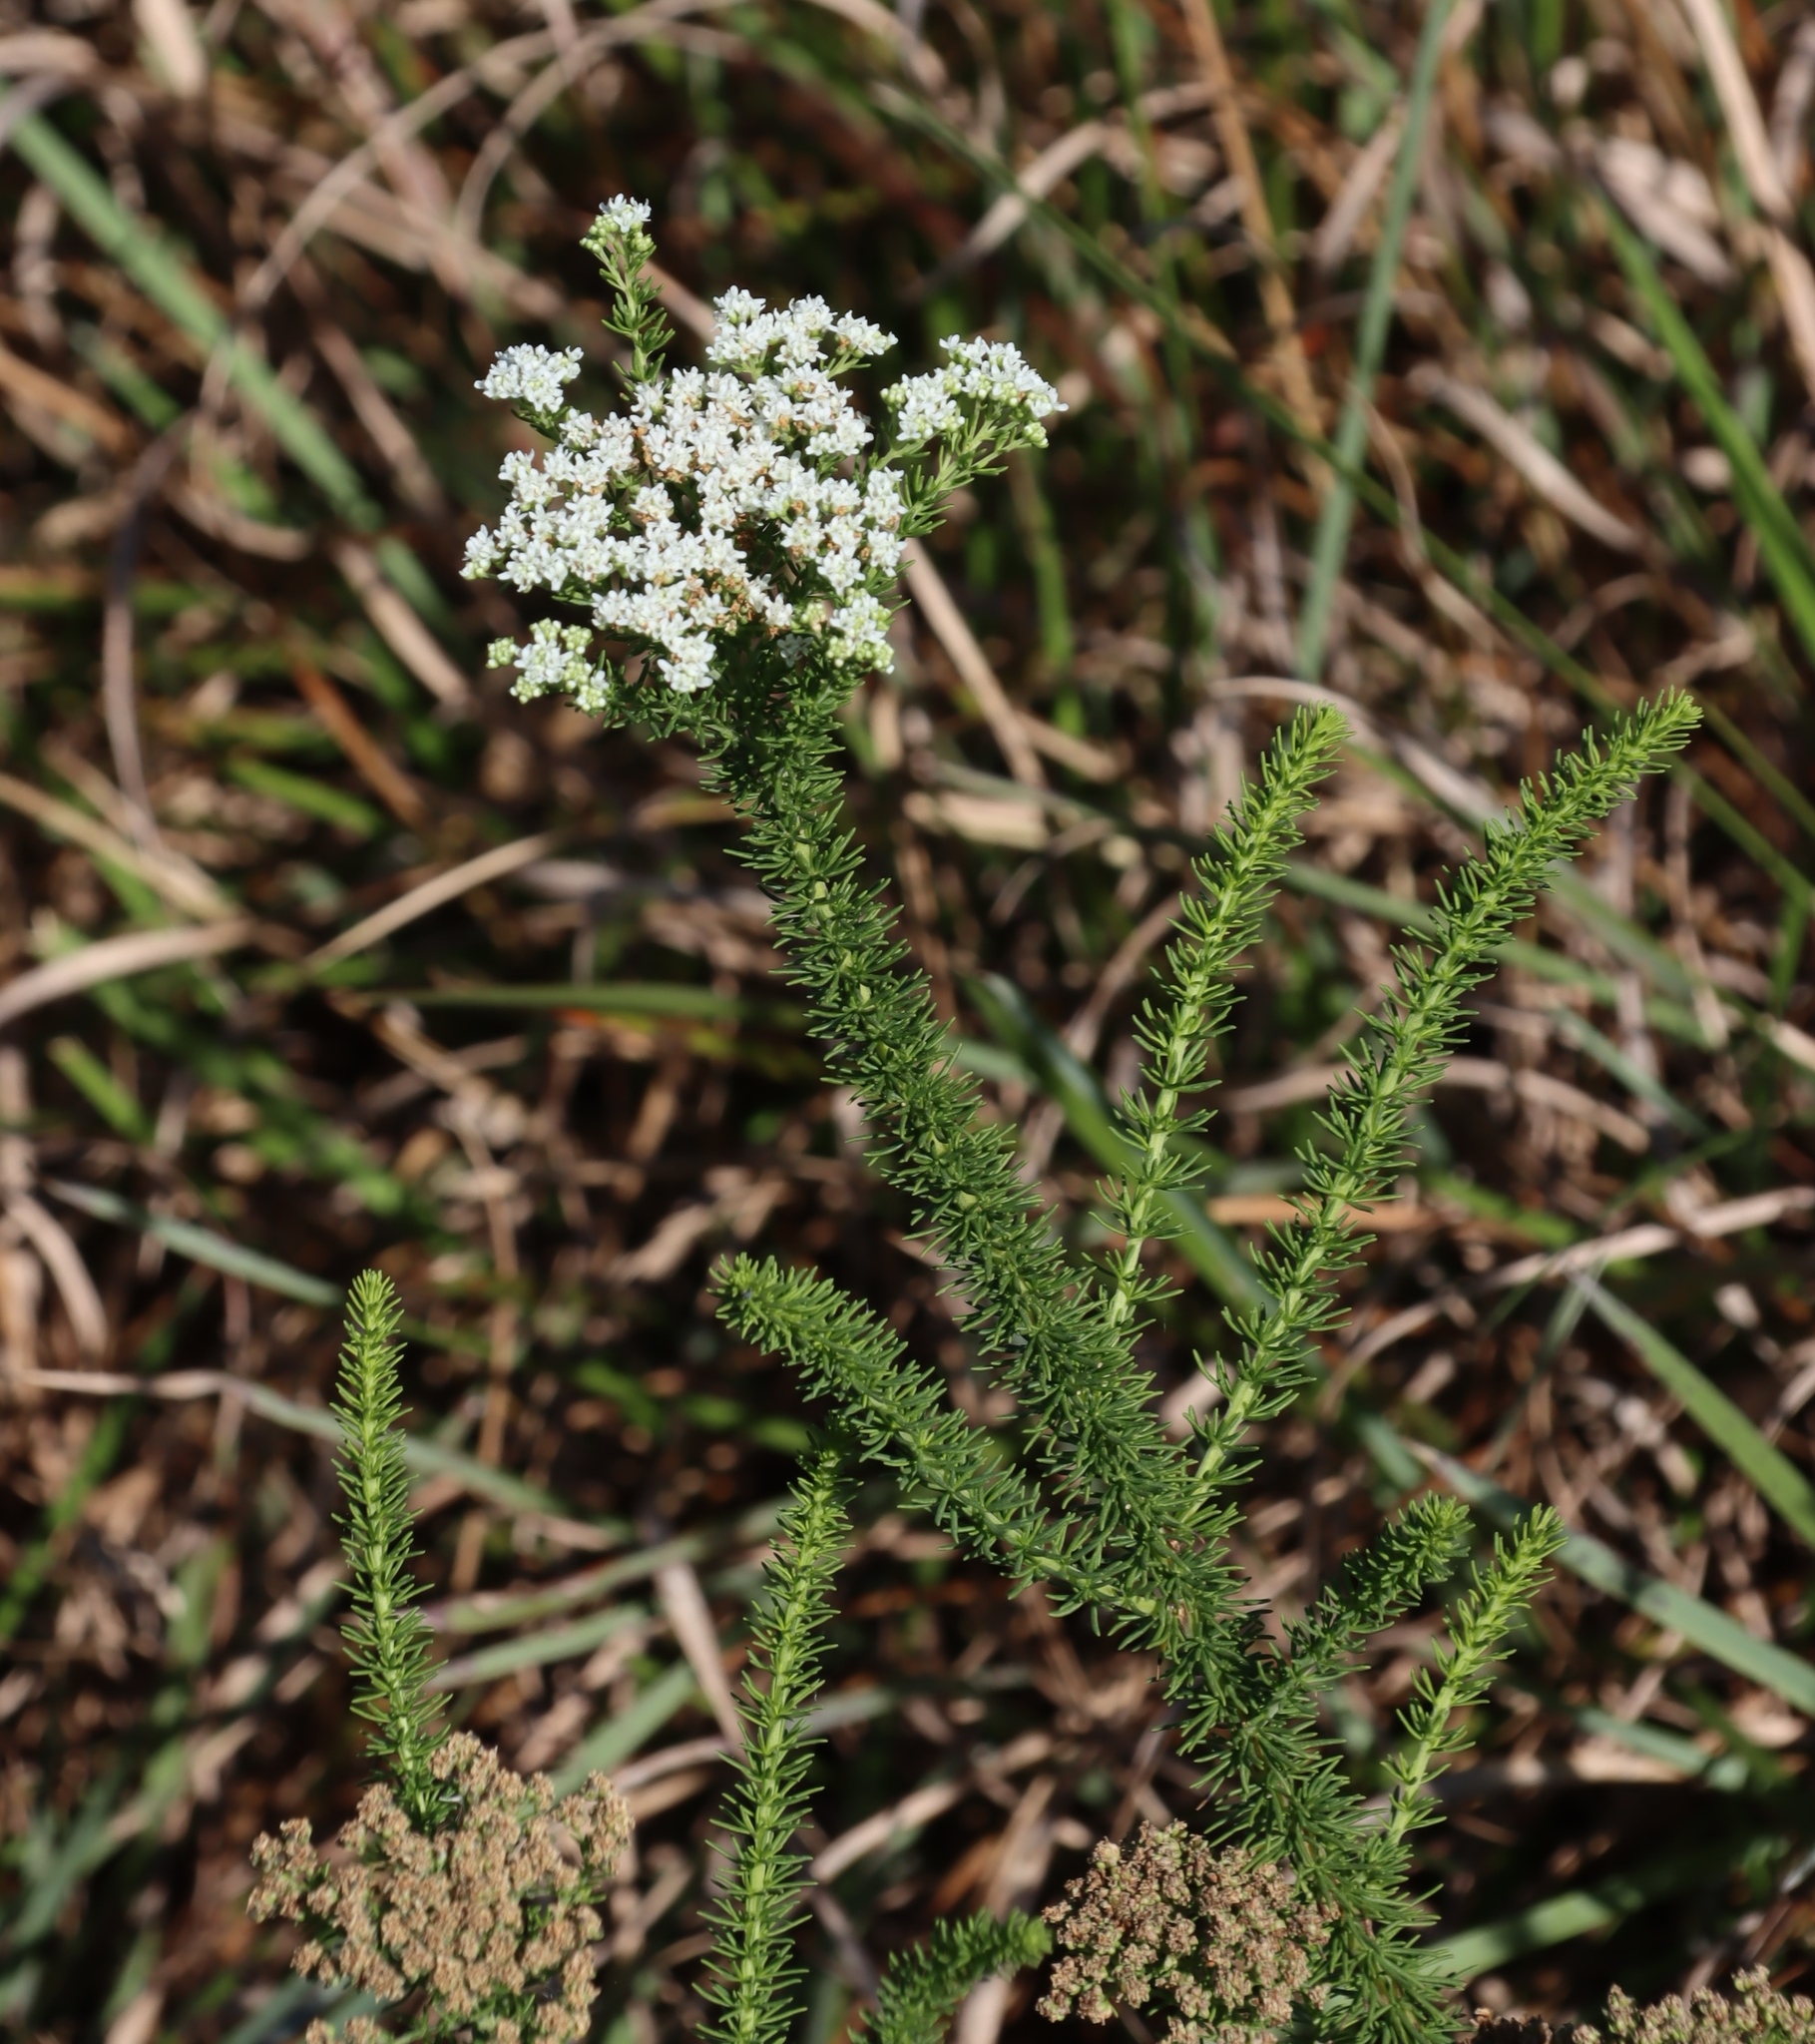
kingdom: Plantae
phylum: Tracheophyta
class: Magnoliopsida
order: Lamiales
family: Scrophulariaceae
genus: Selago
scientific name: Selago corymbosa
